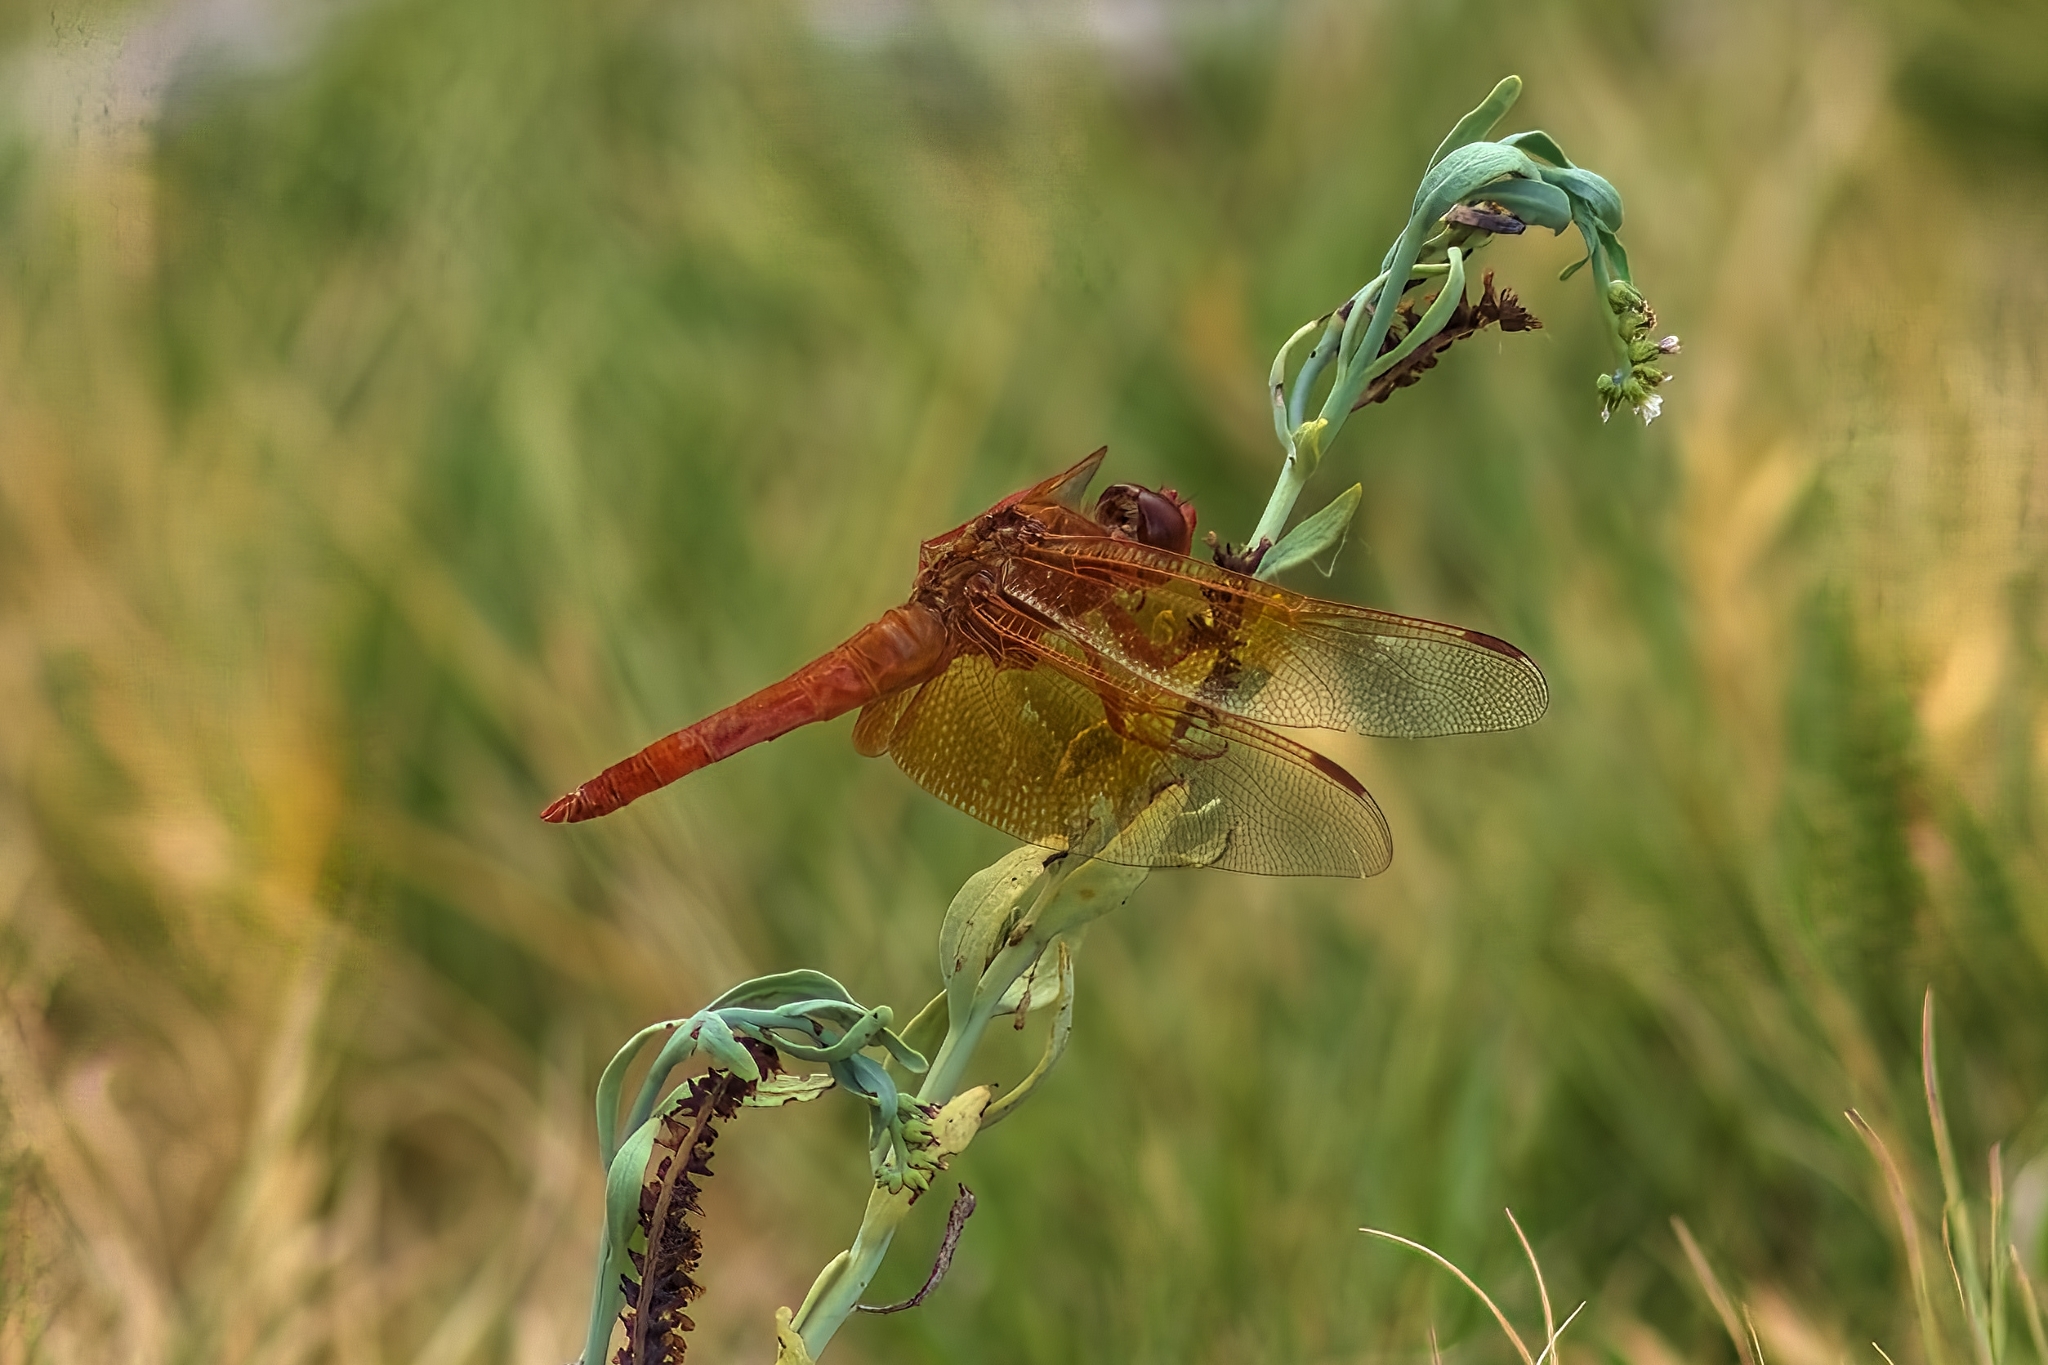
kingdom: Animalia
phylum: Arthropoda
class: Insecta
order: Odonata
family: Libellulidae
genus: Libellula
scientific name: Libellula saturata
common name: Flame skimmer
